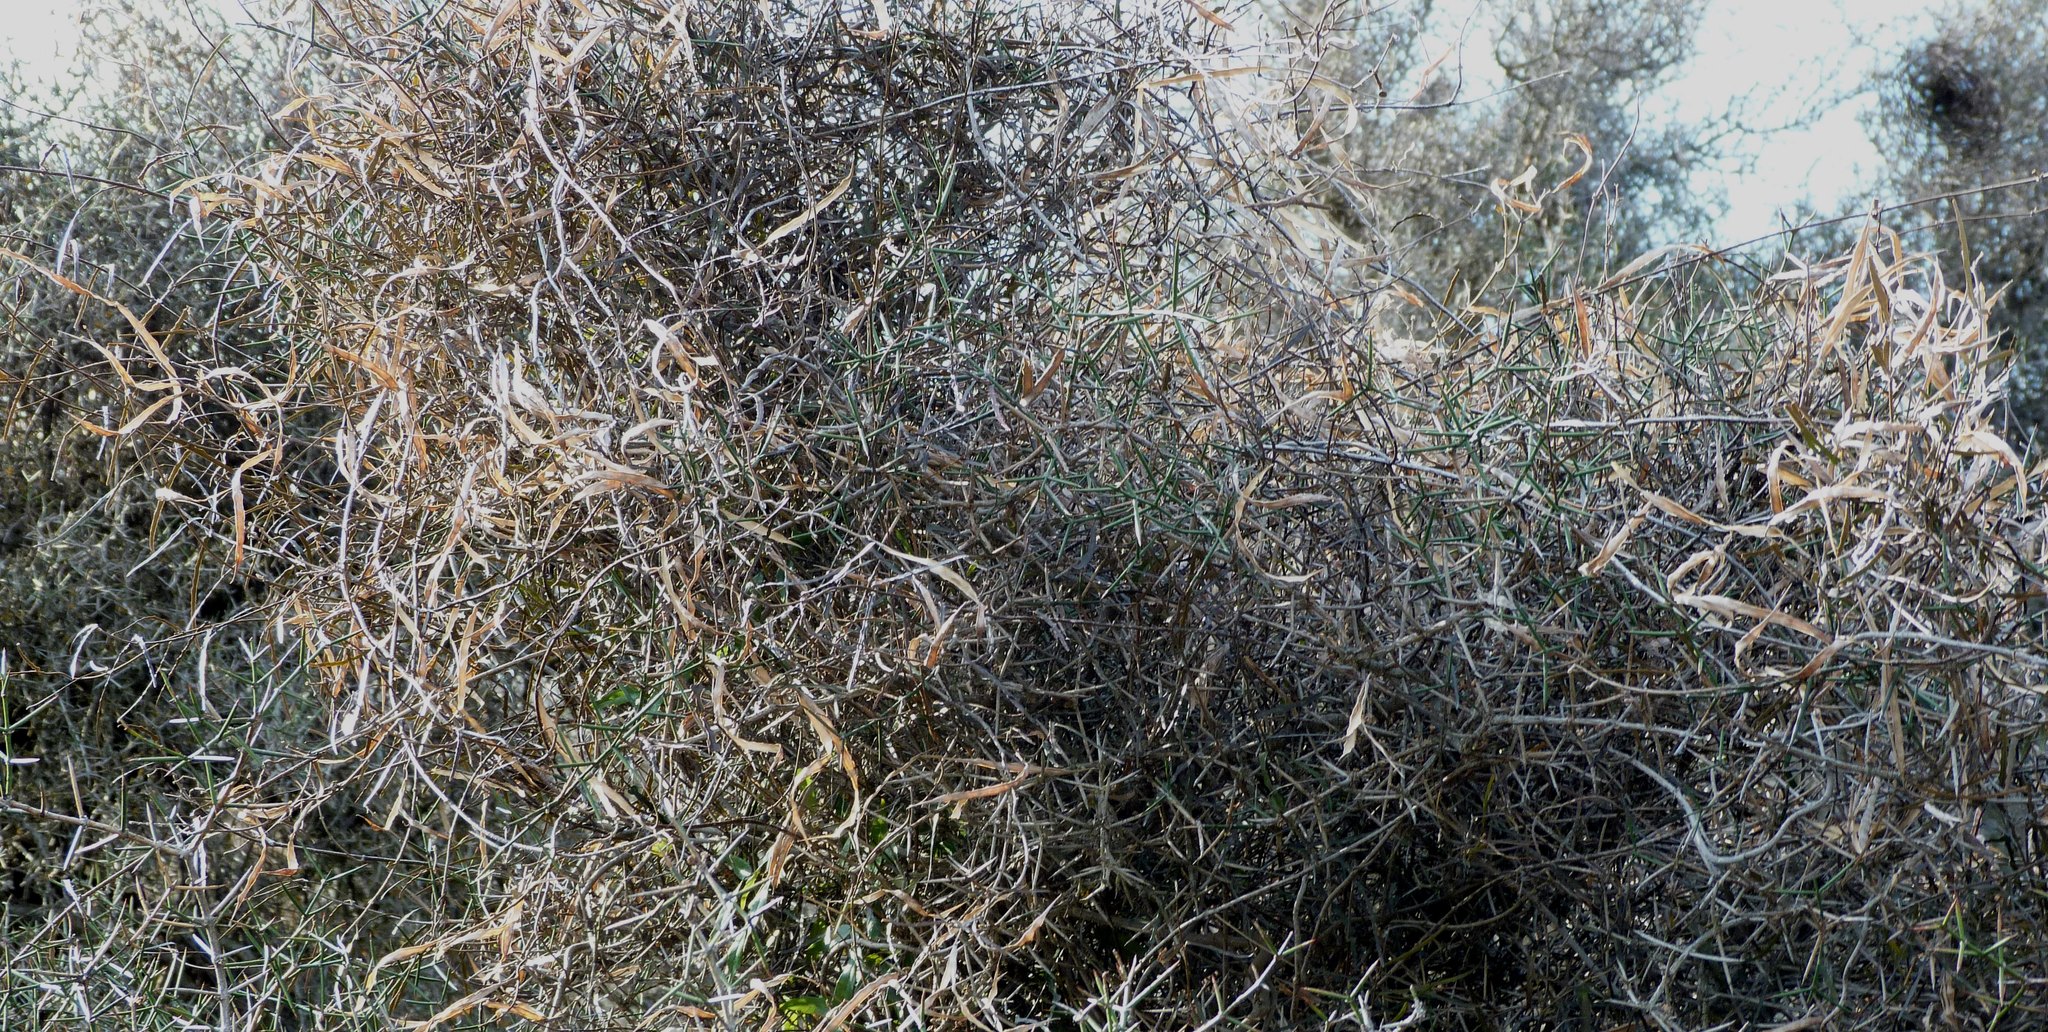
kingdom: Plantae
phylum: Tracheophyta
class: Magnoliopsida
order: Gentianales
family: Apocynaceae
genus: Parsonsia
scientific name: Parsonsia capsularis
